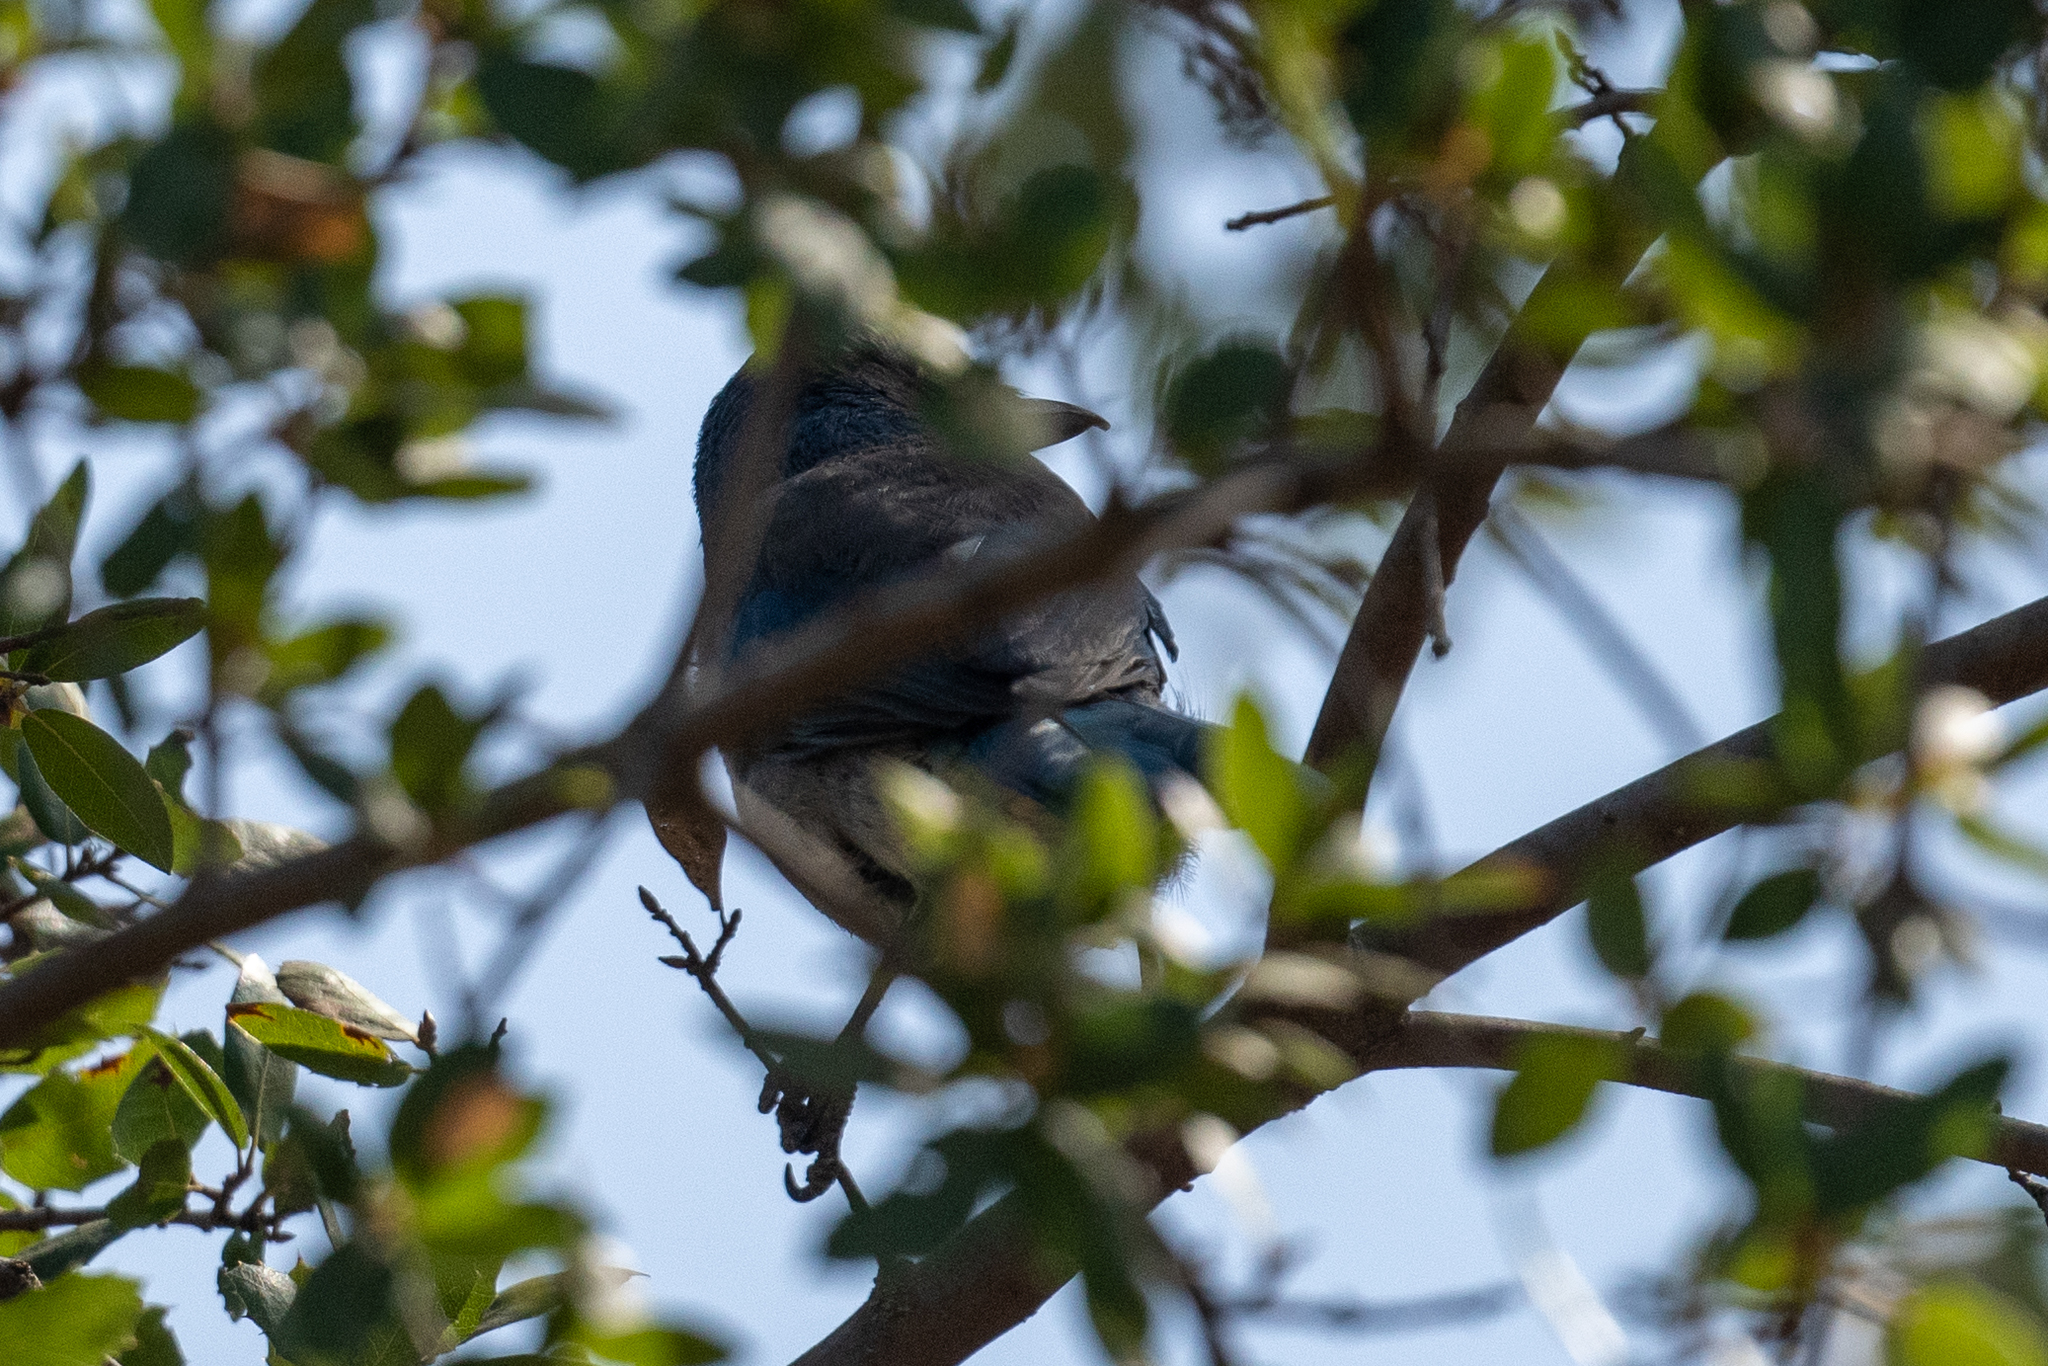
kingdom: Animalia
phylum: Chordata
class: Aves
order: Passeriformes
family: Corvidae
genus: Aphelocoma
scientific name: Aphelocoma californica
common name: California scrub-jay
